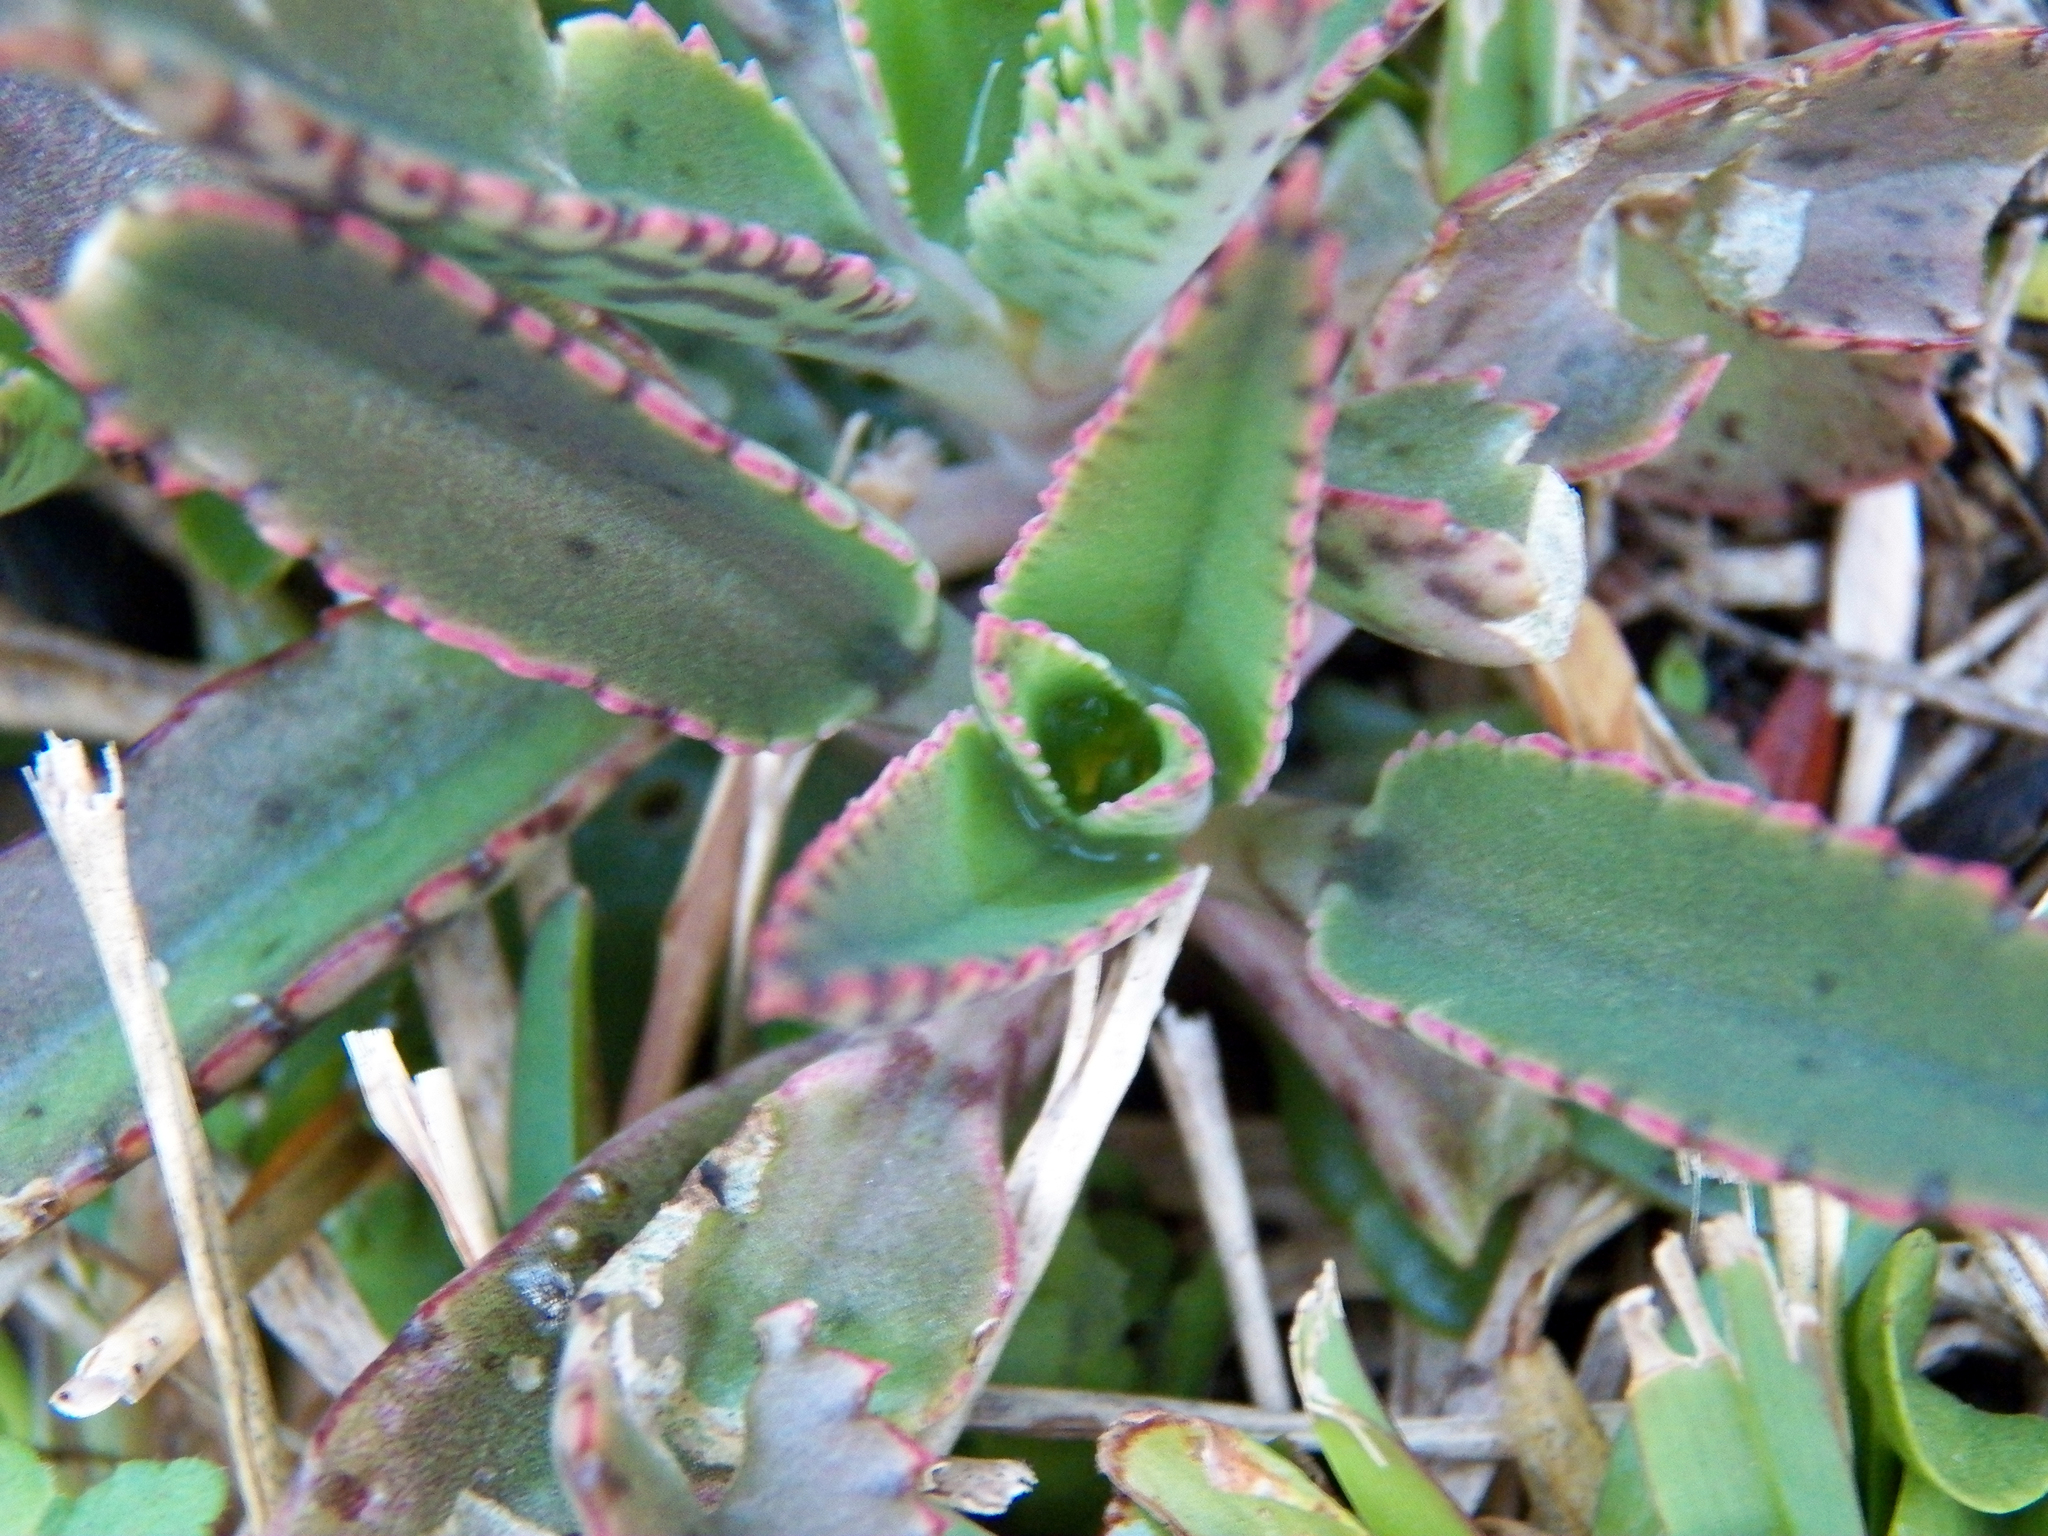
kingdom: Plantae
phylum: Tracheophyta
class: Magnoliopsida
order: Saxifragales
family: Crassulaceae
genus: Kalanchoe
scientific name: Kalanchoe houghtonii
